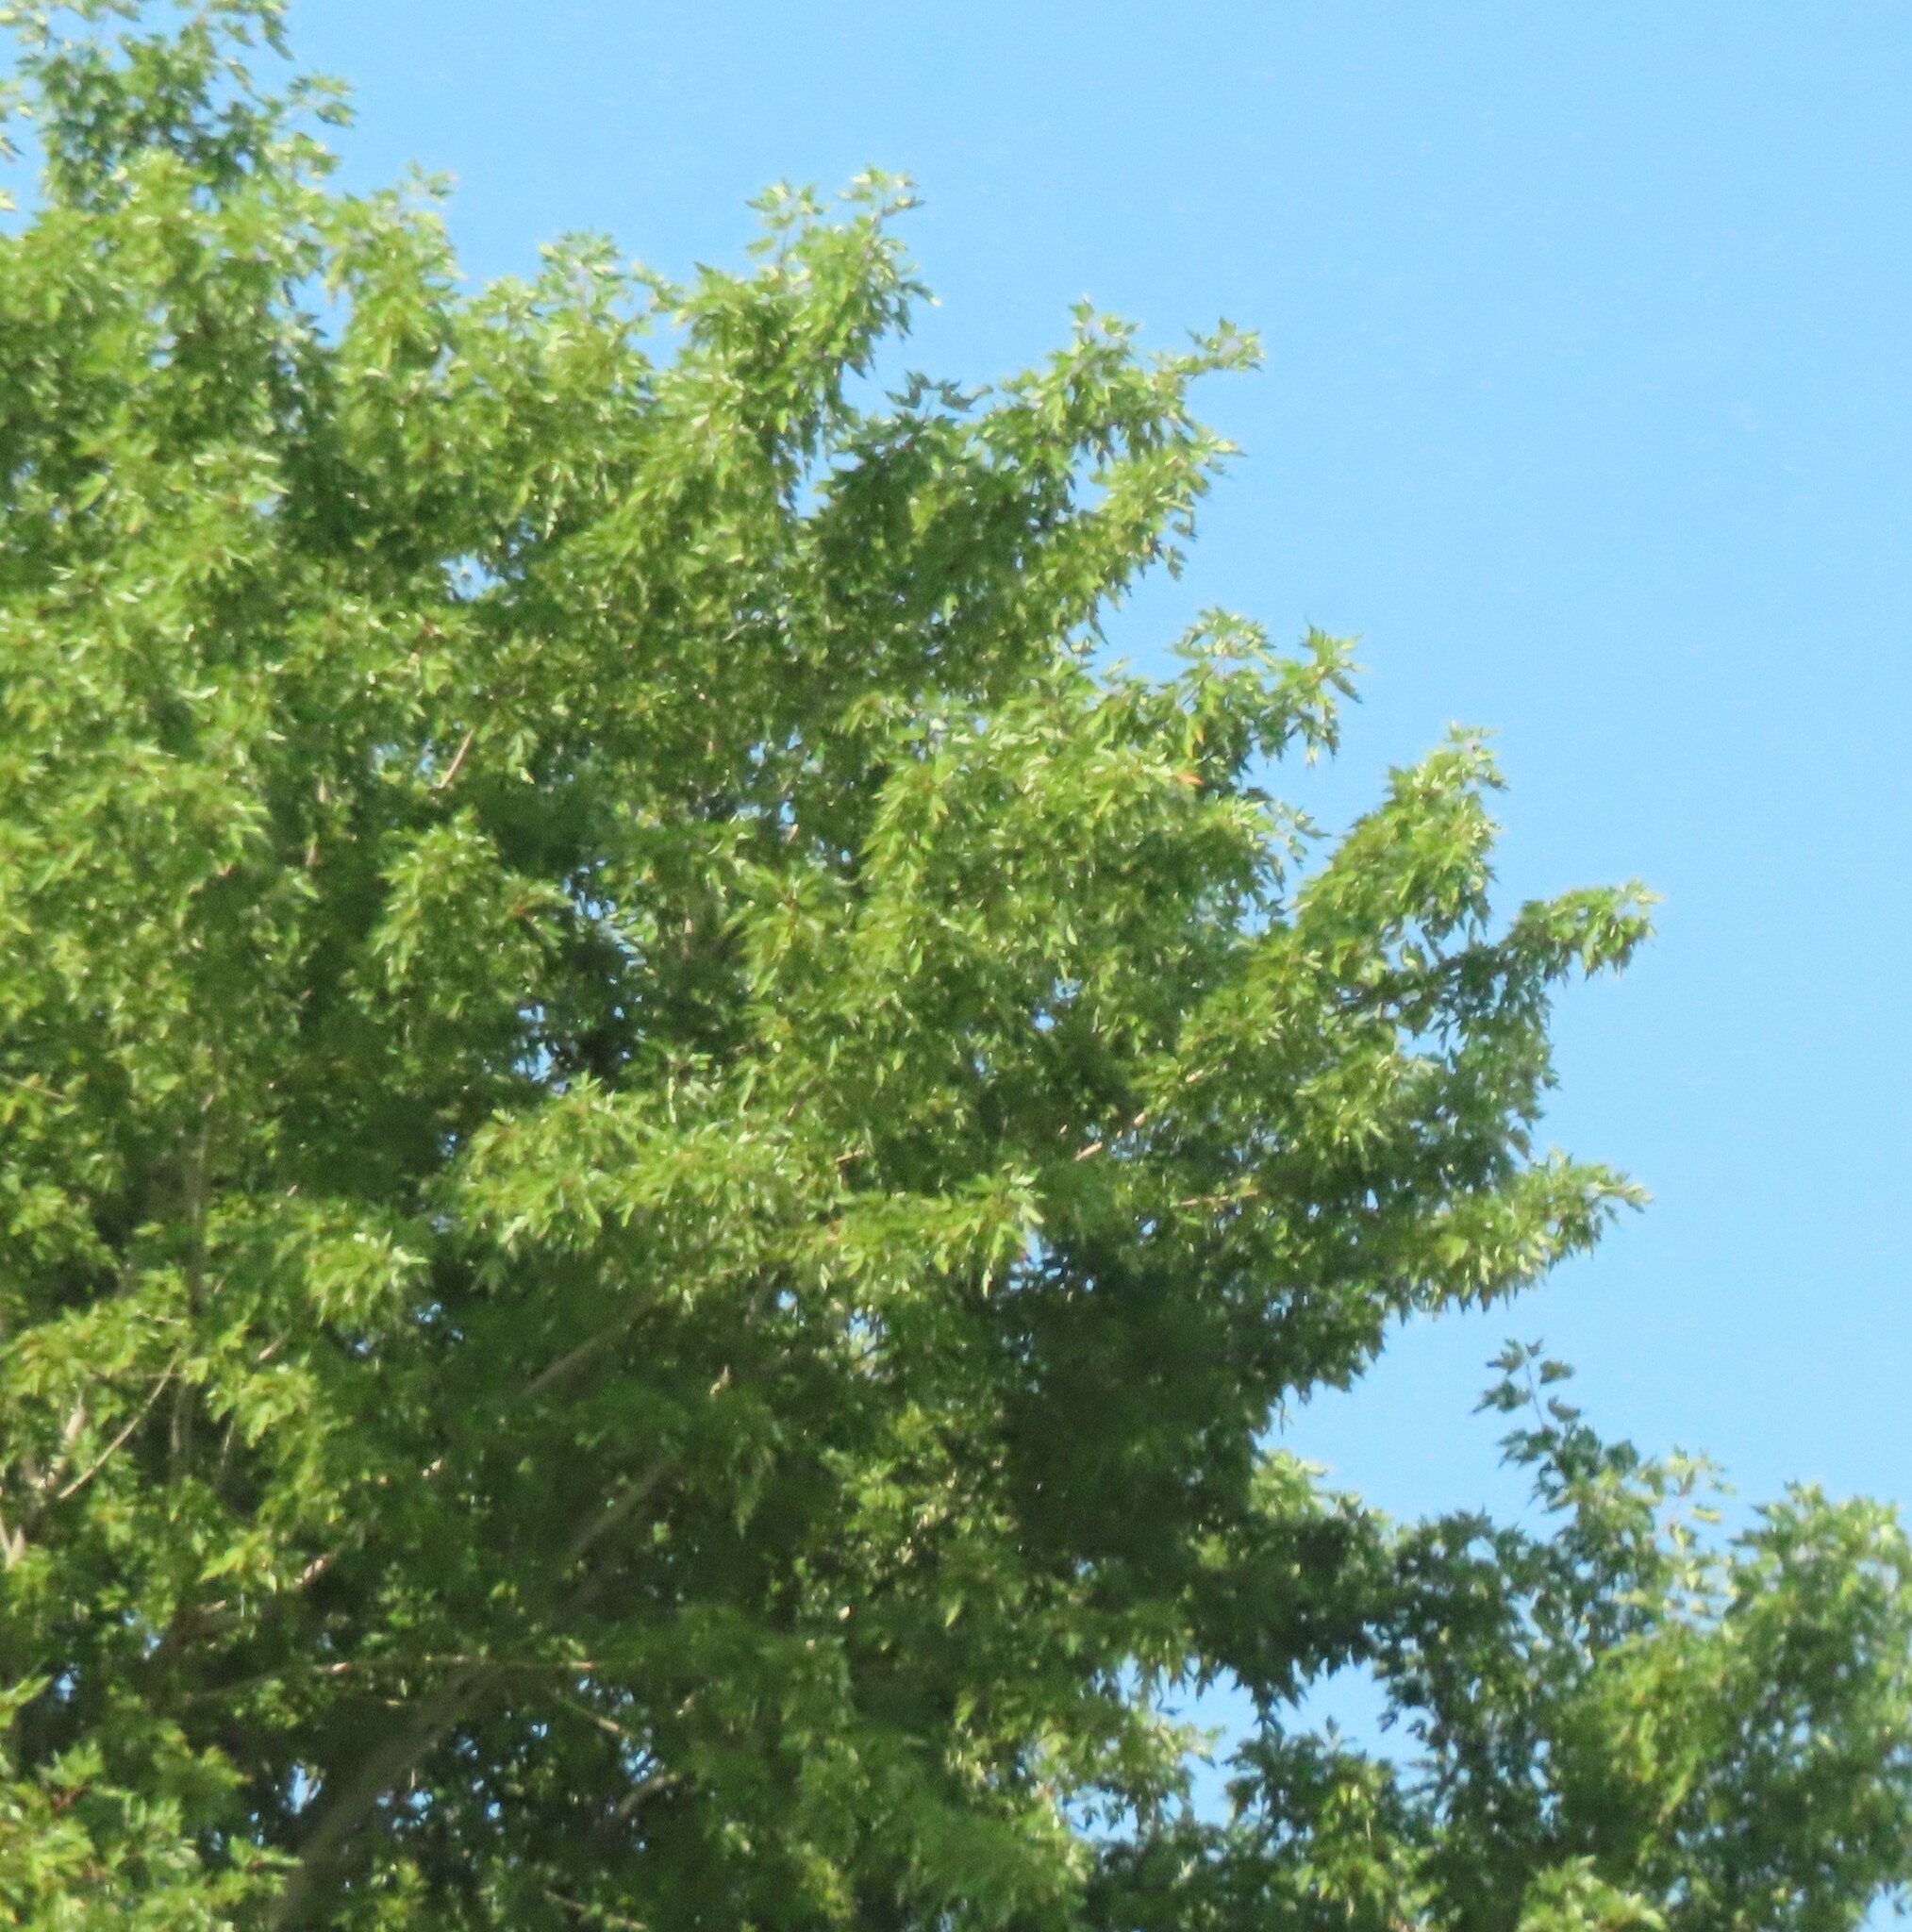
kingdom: Plantae
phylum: Tracheophyta
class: Magnoliopsida
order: Sapindales
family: Sapindaceae
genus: Acer
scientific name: Acer saccharinum
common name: Silver maple
